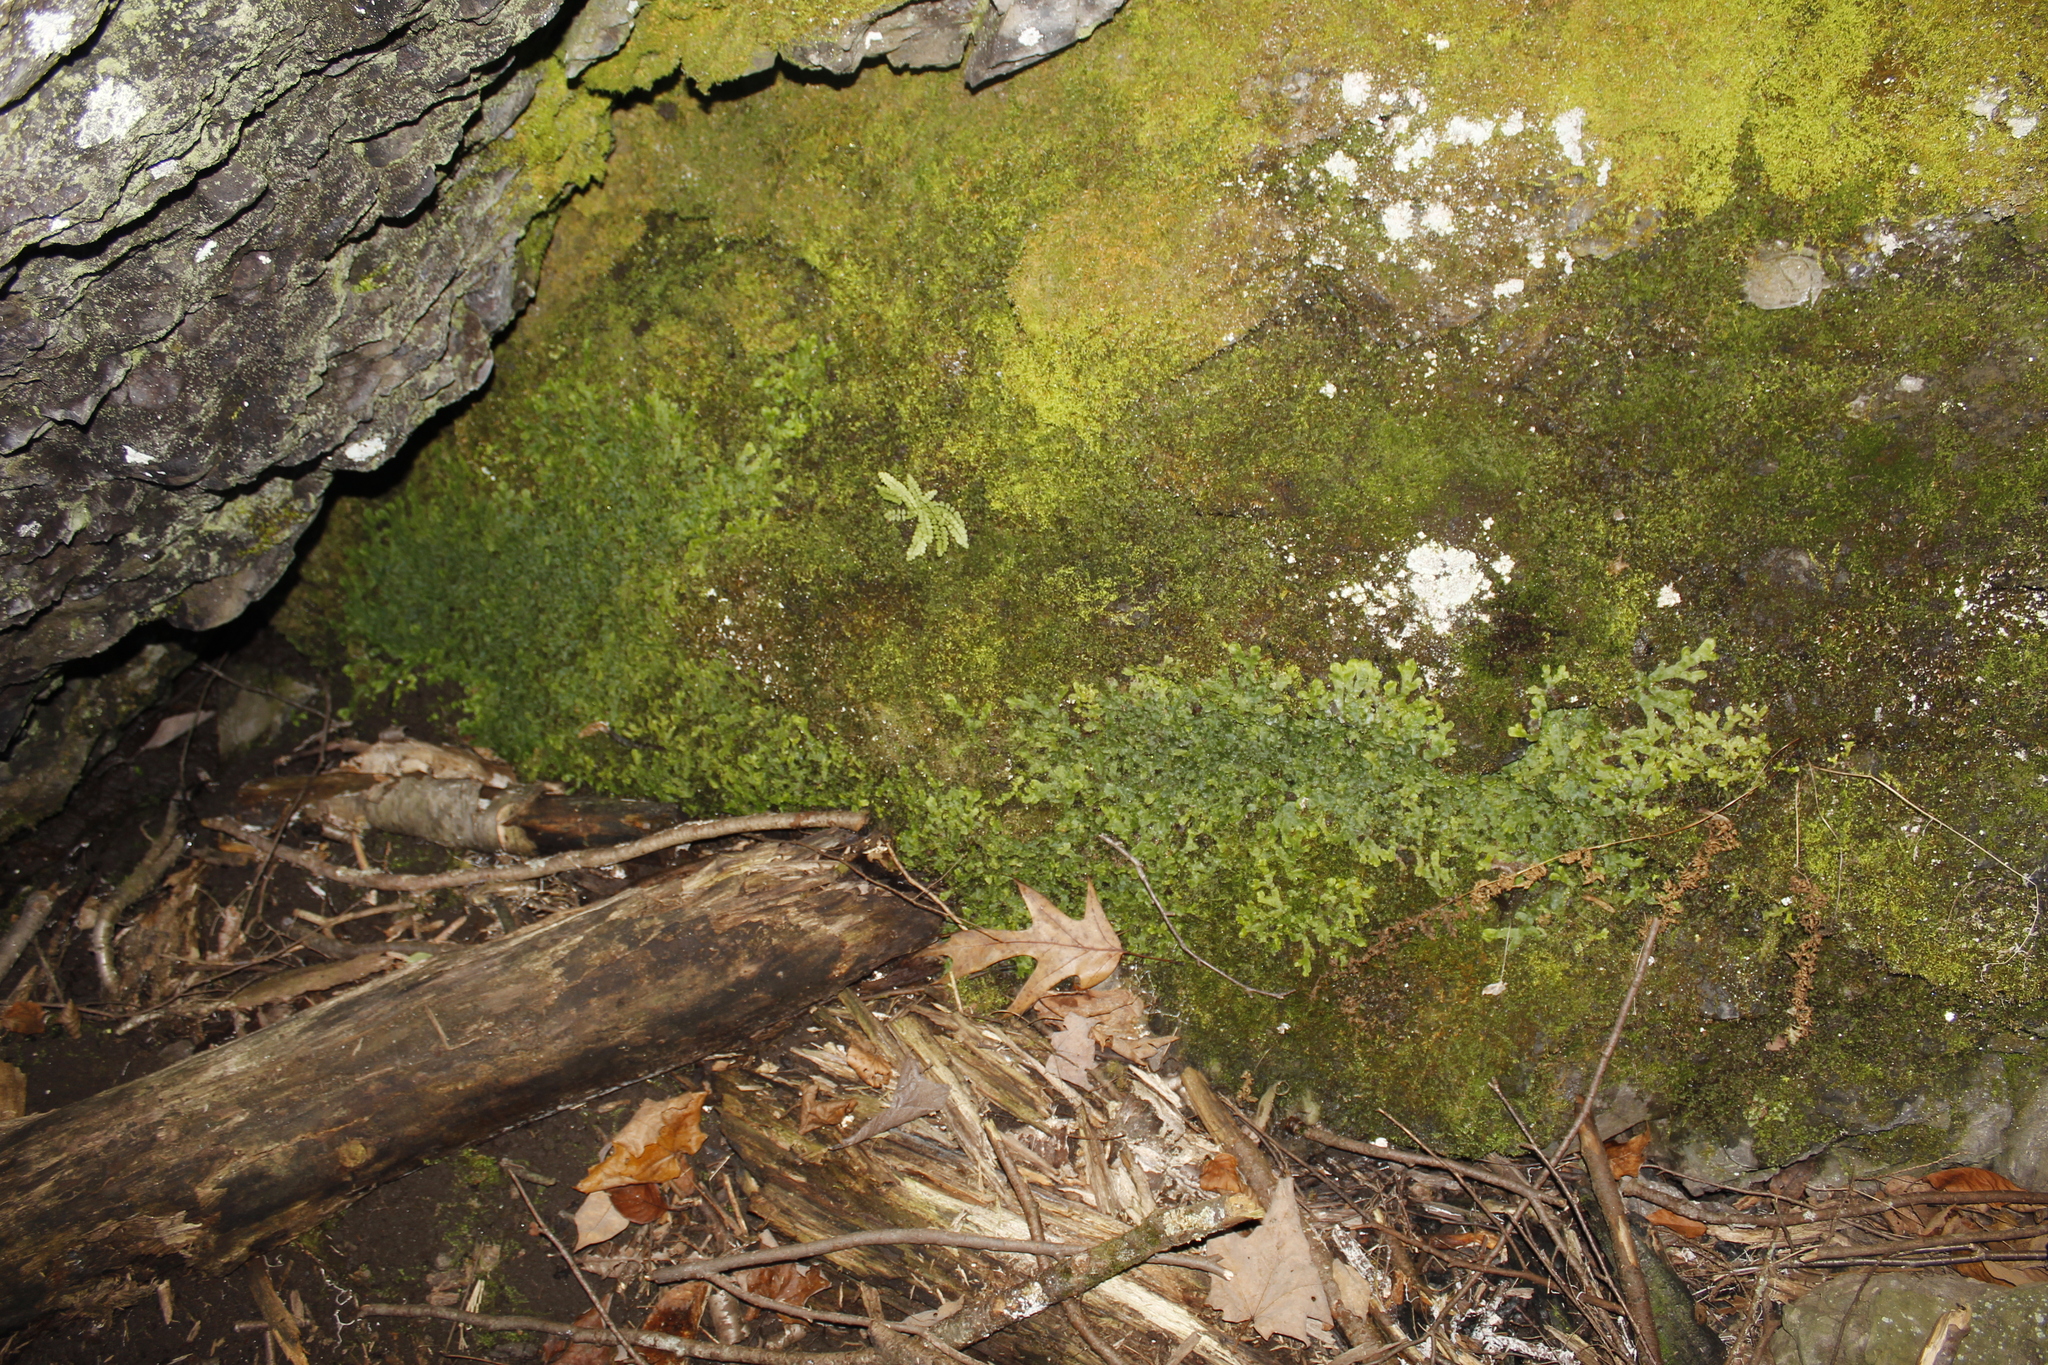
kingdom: Plantae
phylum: Tracheophyta
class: Polypodiopsida
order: Polypodiales
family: Aspleniaceae
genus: Asplenium
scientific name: Asplenium trichomanes
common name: Maidenhair spleenwort
